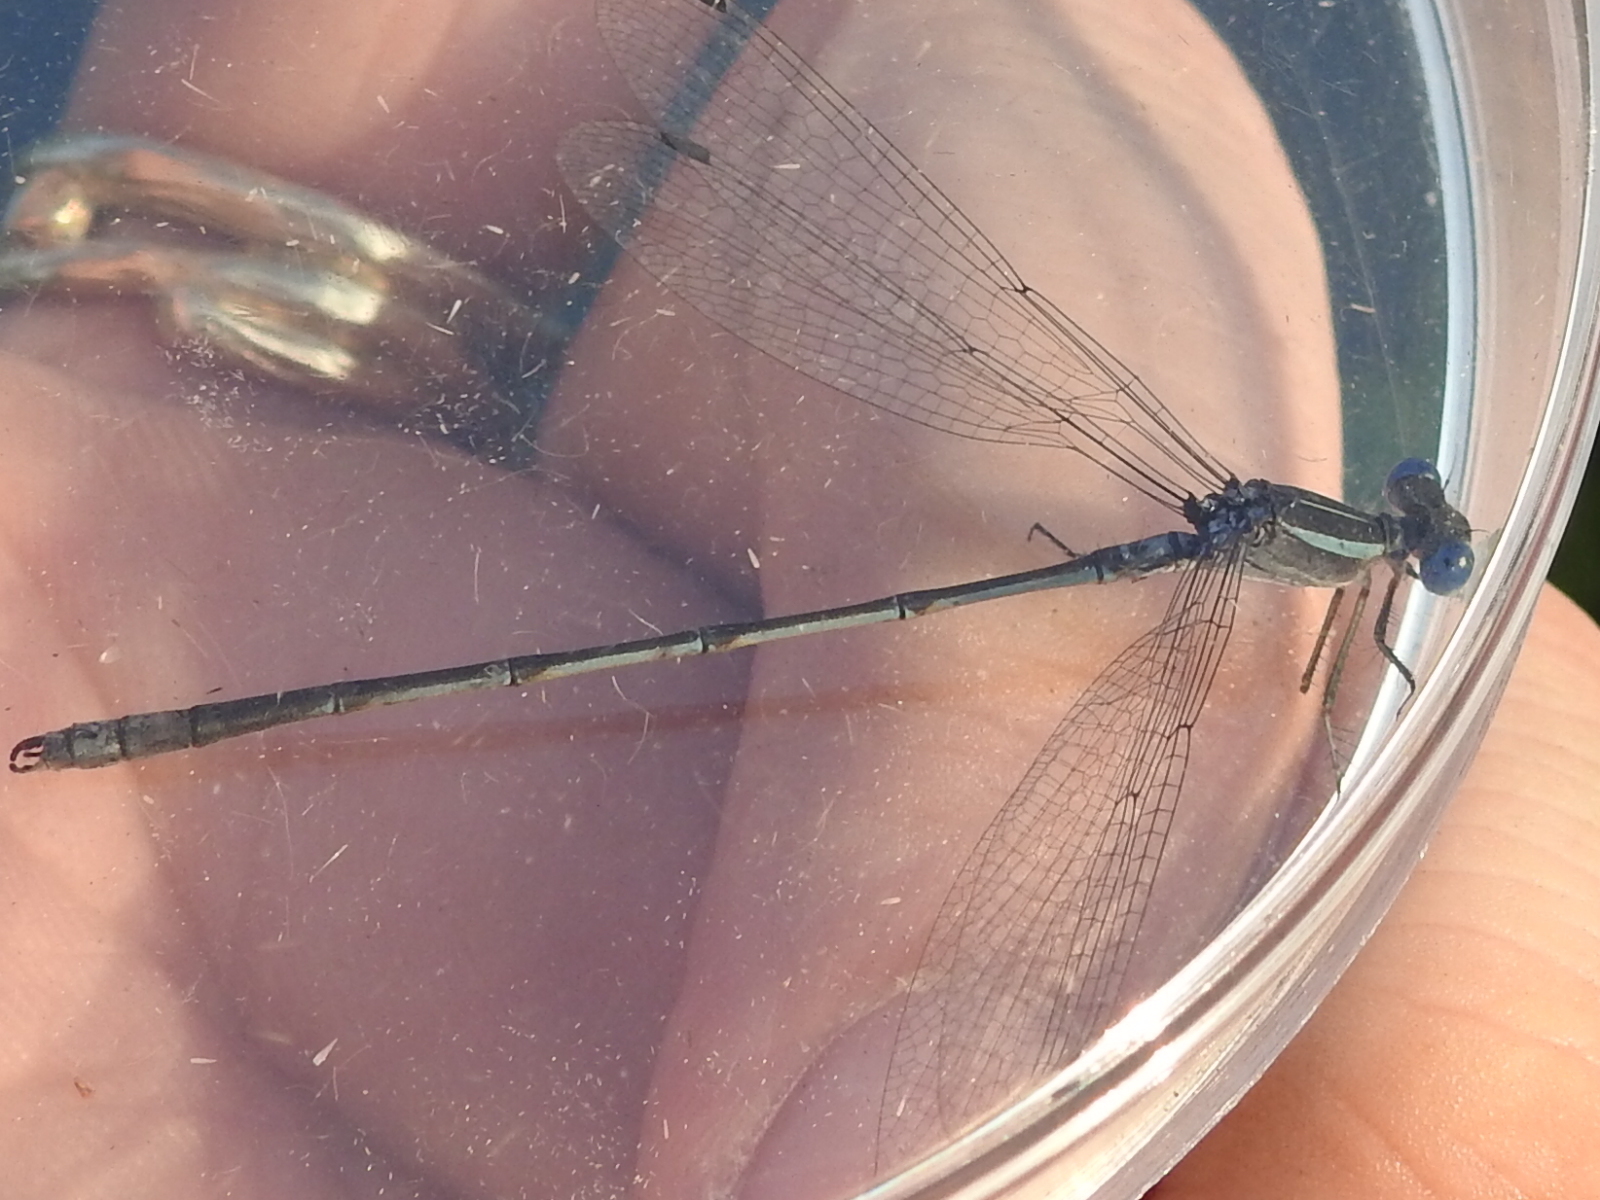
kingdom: Animalia
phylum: Arthropoda
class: Insecta
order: Odonata
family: Lestidae
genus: Lestes
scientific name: Lestes alacer
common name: Plateau spreadwing
